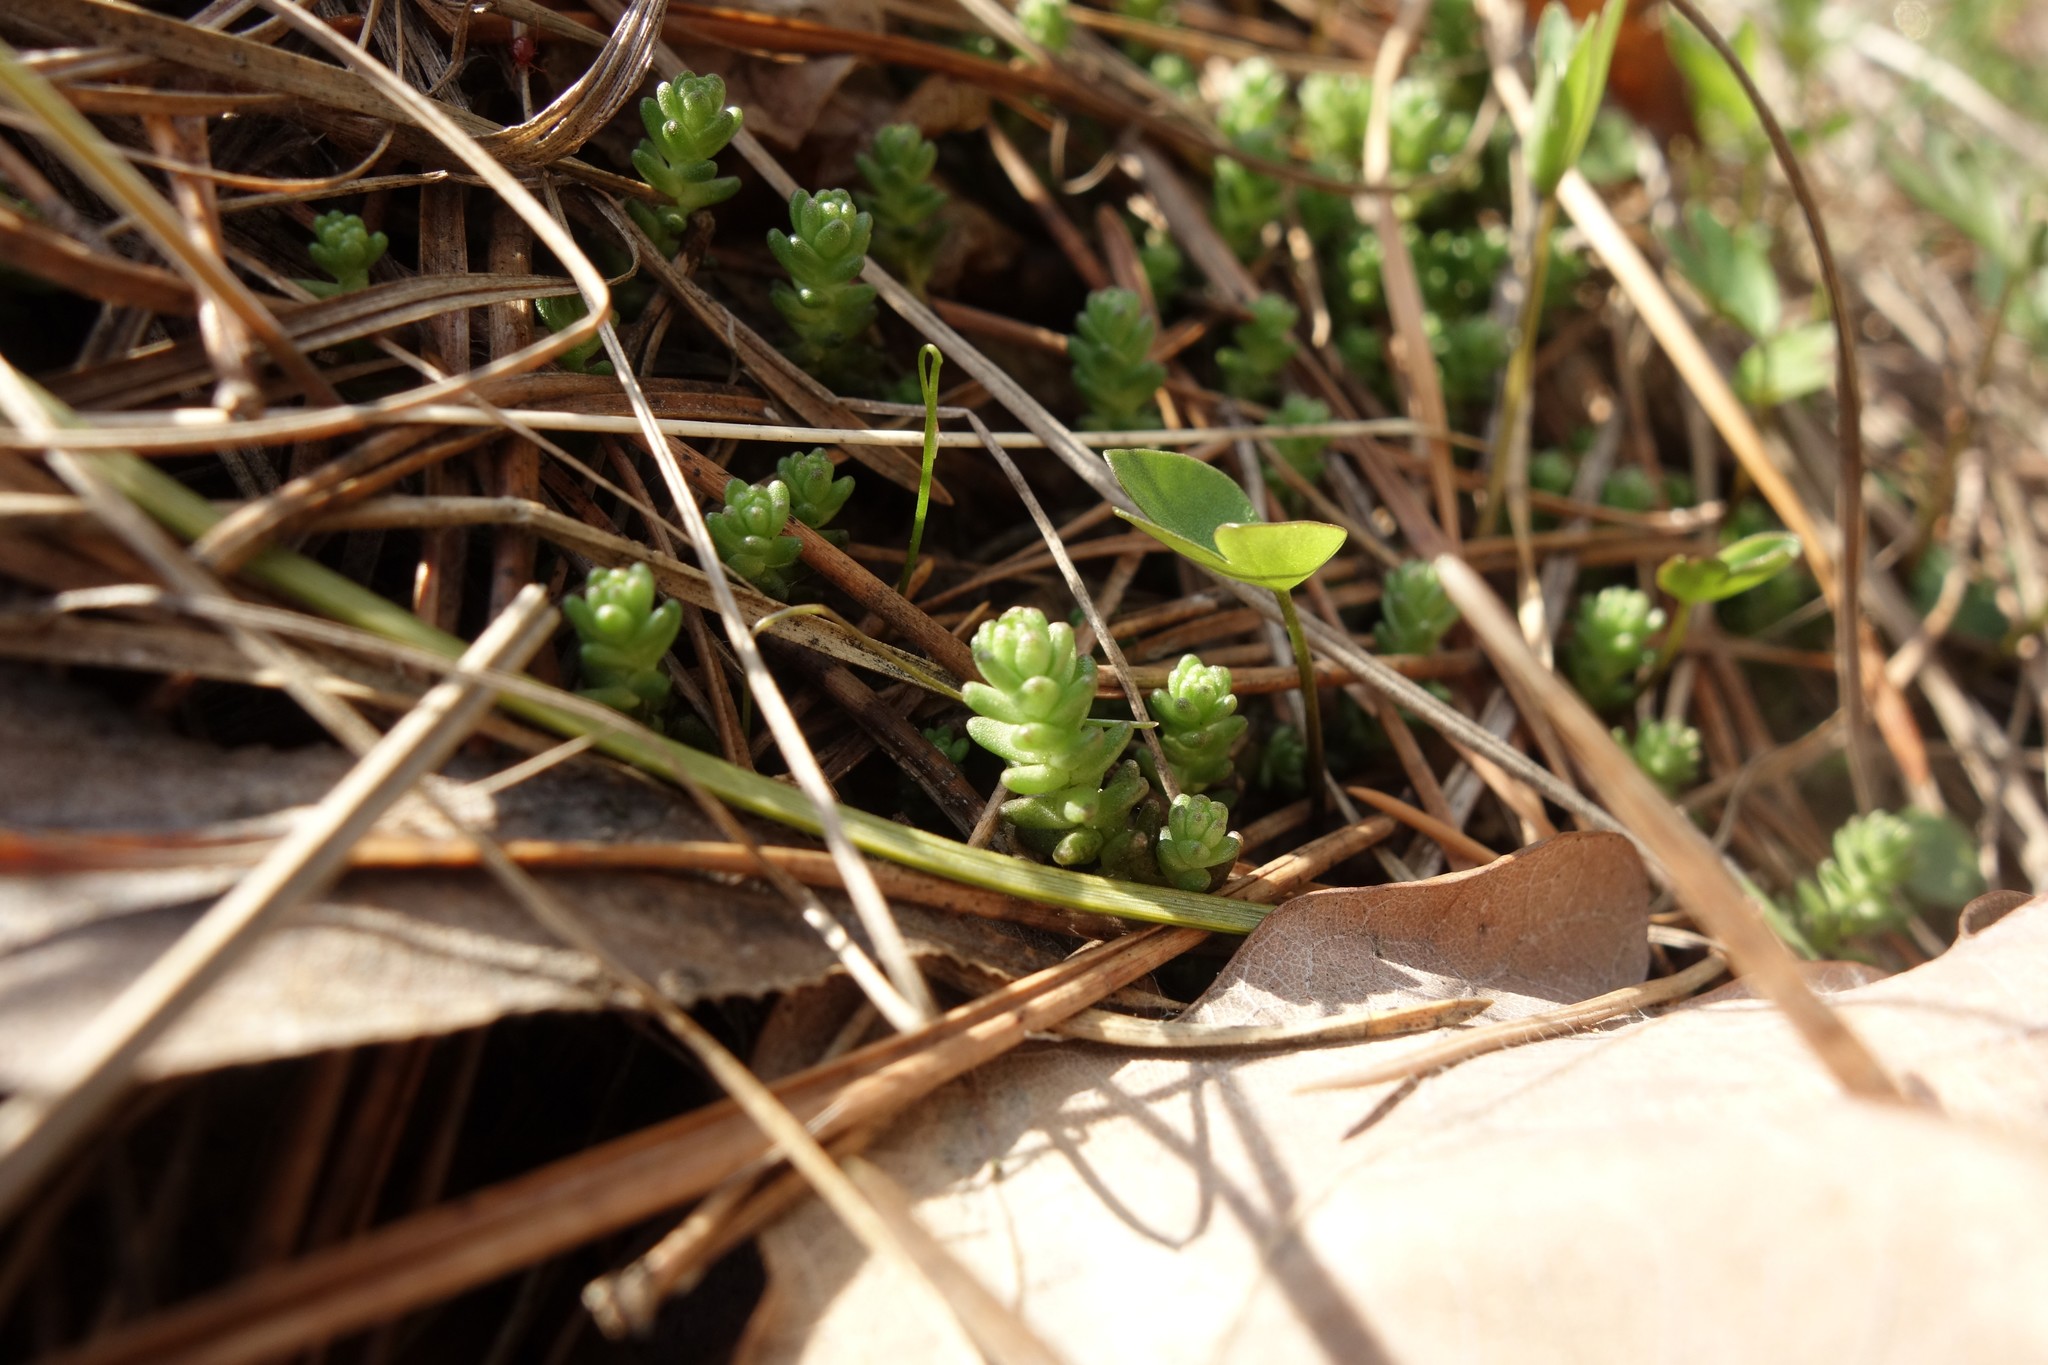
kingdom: Plantae
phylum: Tracheophyta
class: Magnoliopsida
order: Saxifragales
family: Crassulaceae
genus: Sedum
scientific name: Sedum acre
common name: Biting stonecrop
